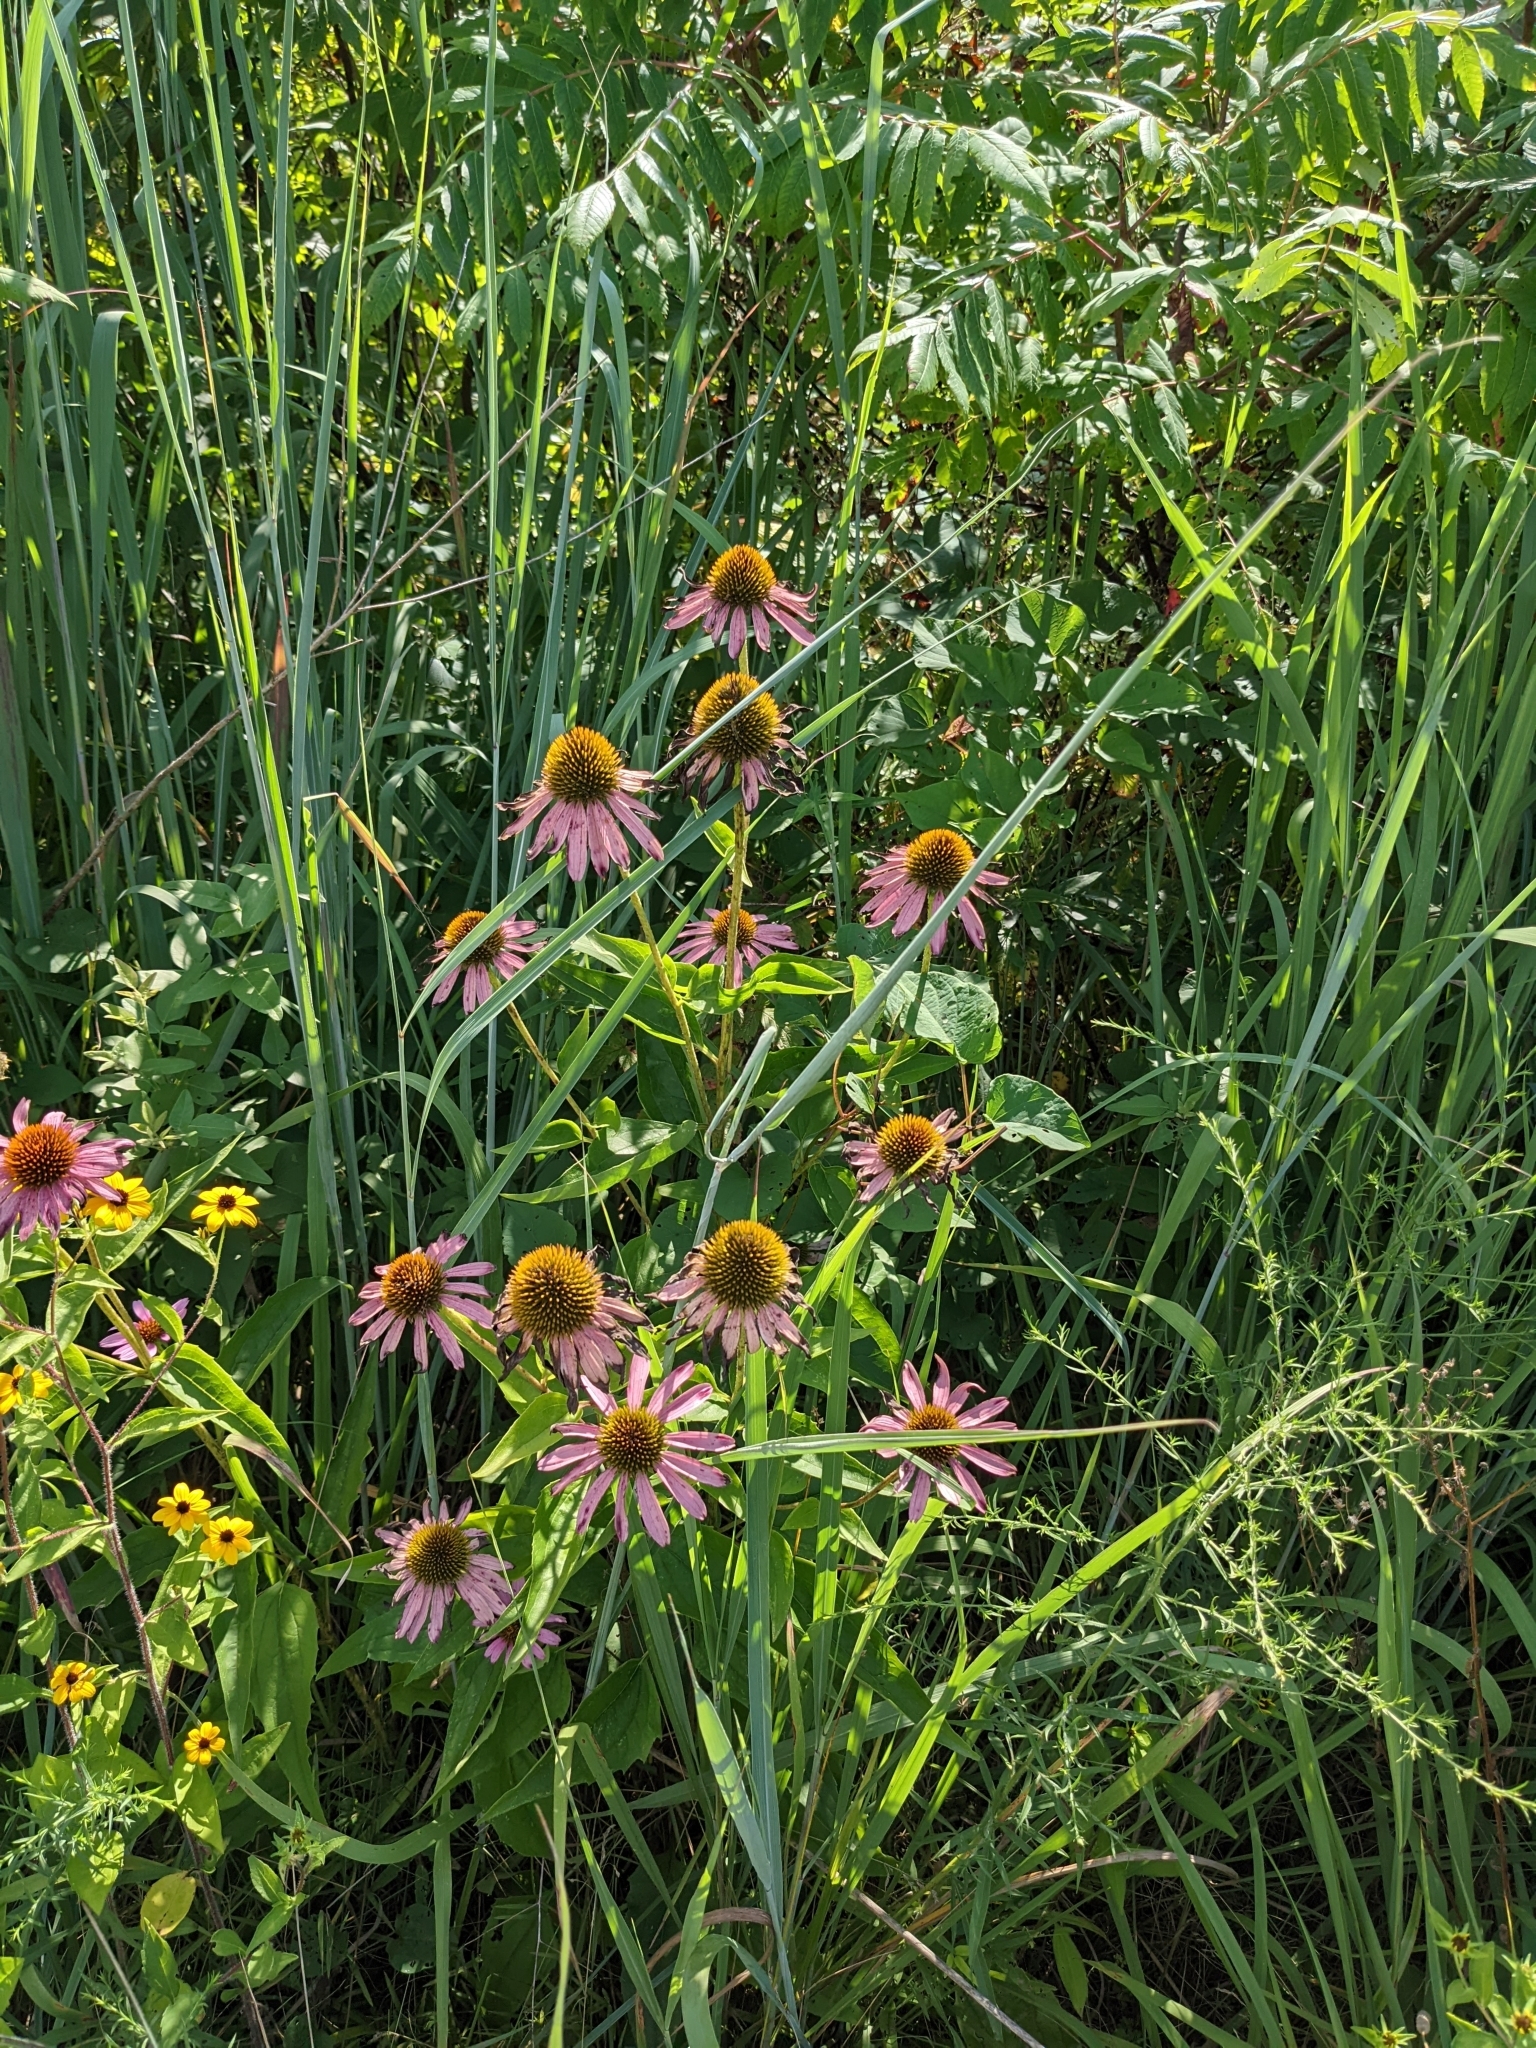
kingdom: Plantae
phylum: Tracheophyta
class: Magnoliopsida
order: Asterales
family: Asteraceae
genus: Echinacea
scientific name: Echinacea purpurea
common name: Broad-leaved purple coneflower
